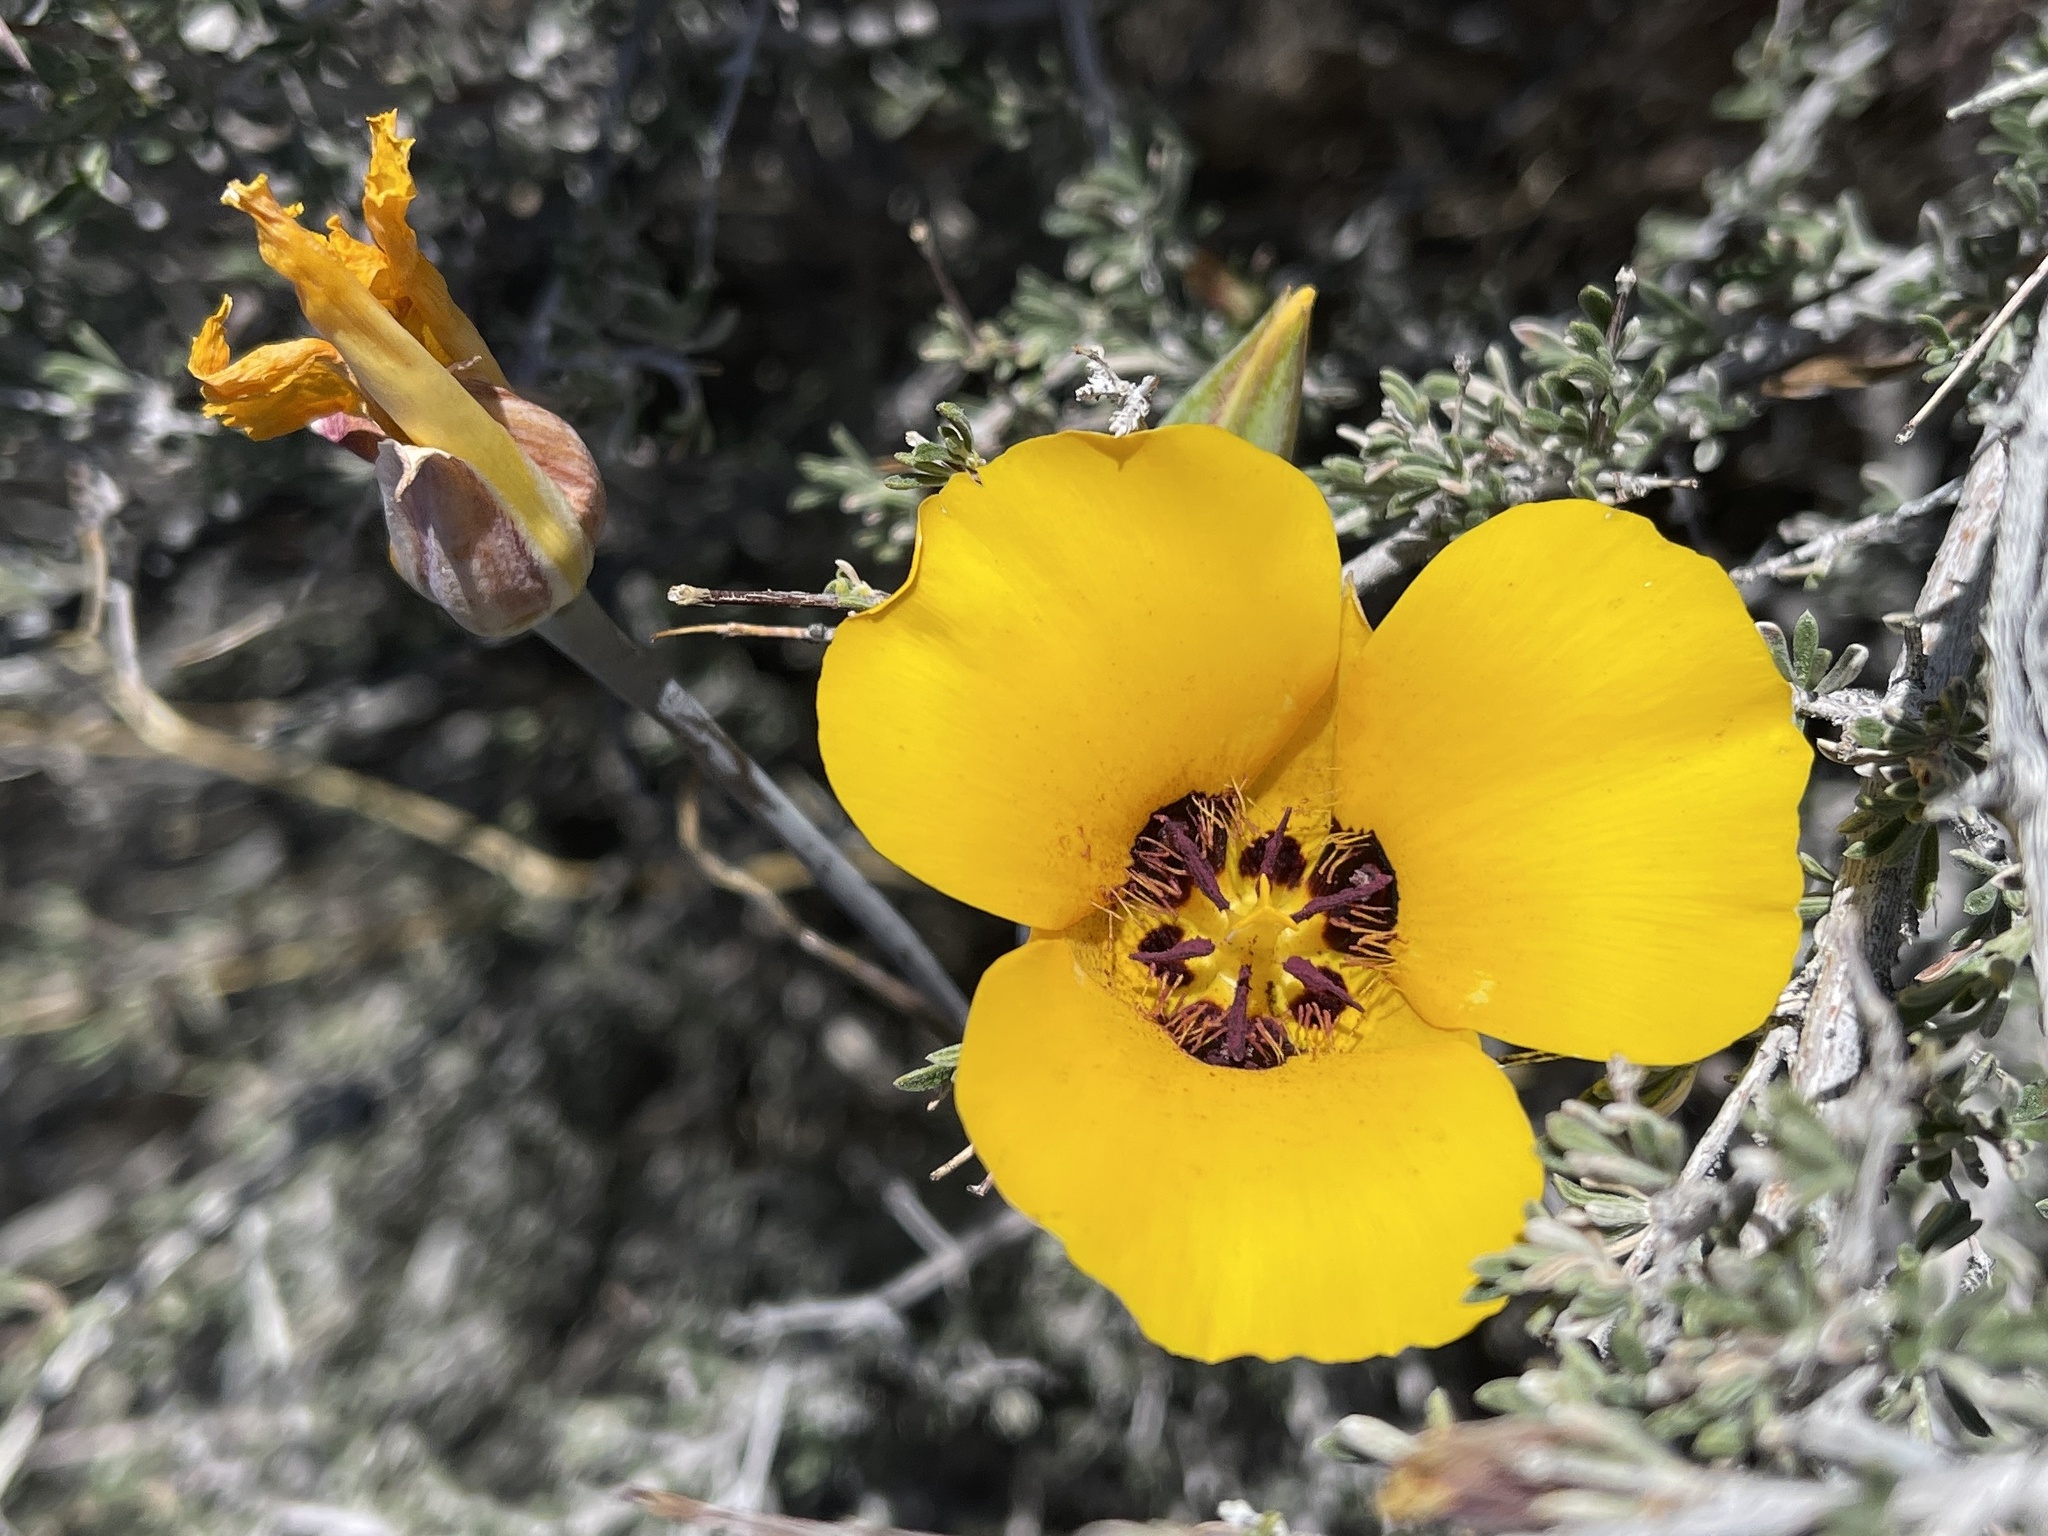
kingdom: Plantae
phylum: Tracheophyta
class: Liliopsida
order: Liliales
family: Liliaceae
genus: Calochortus
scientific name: Calochortus kennedyi
